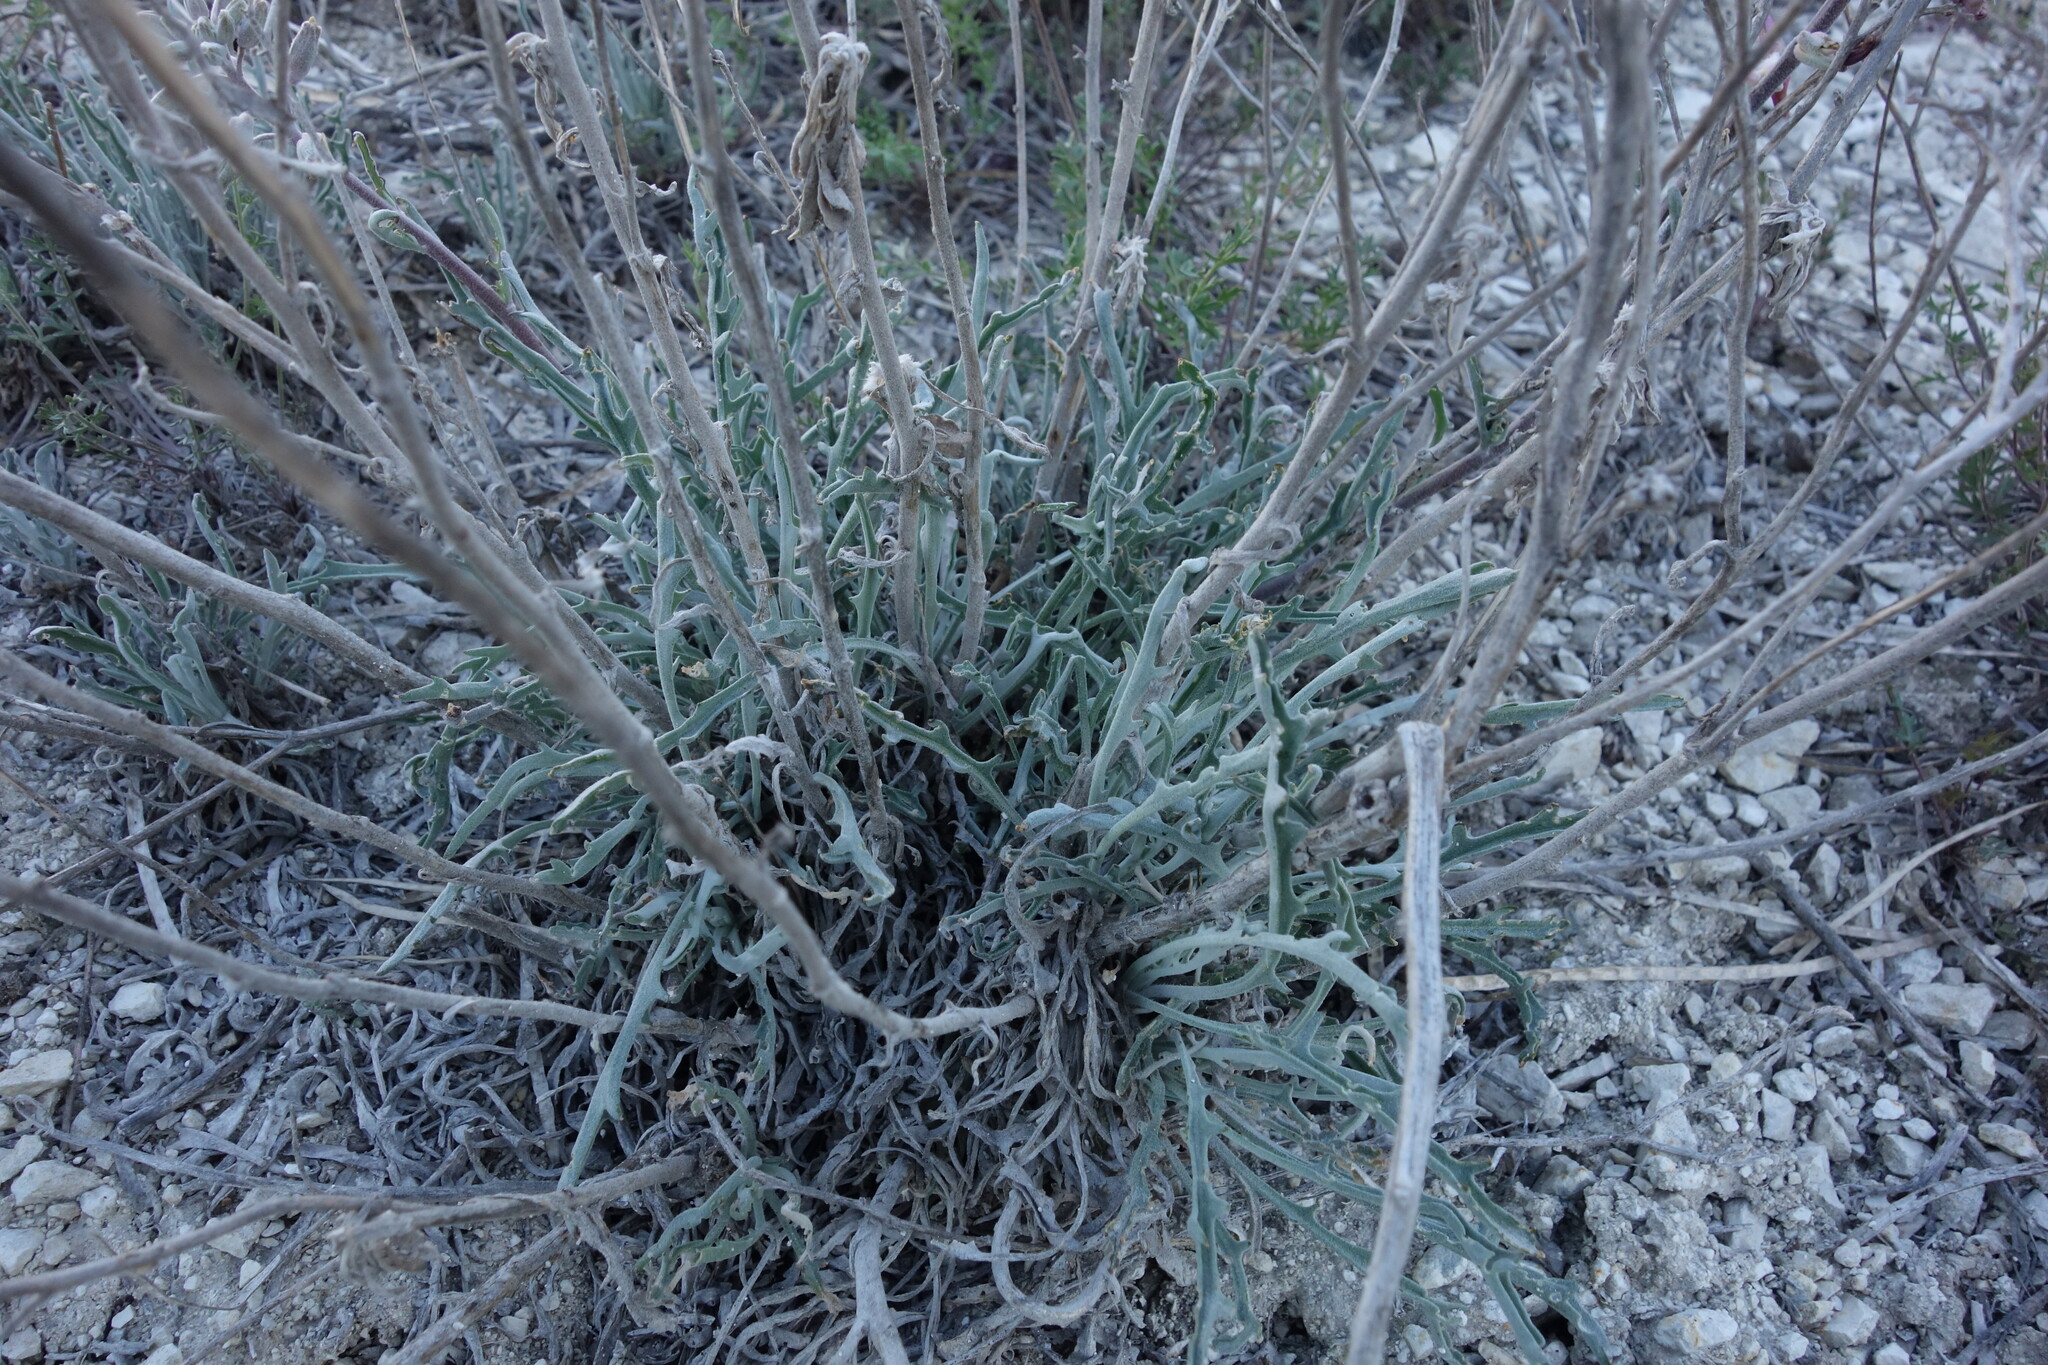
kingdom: Plantae
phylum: Tracheophyta
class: Magnoliopsida
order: Brassicales
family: Brassicaceae
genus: Matthiola
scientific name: Matthiola fragrans
